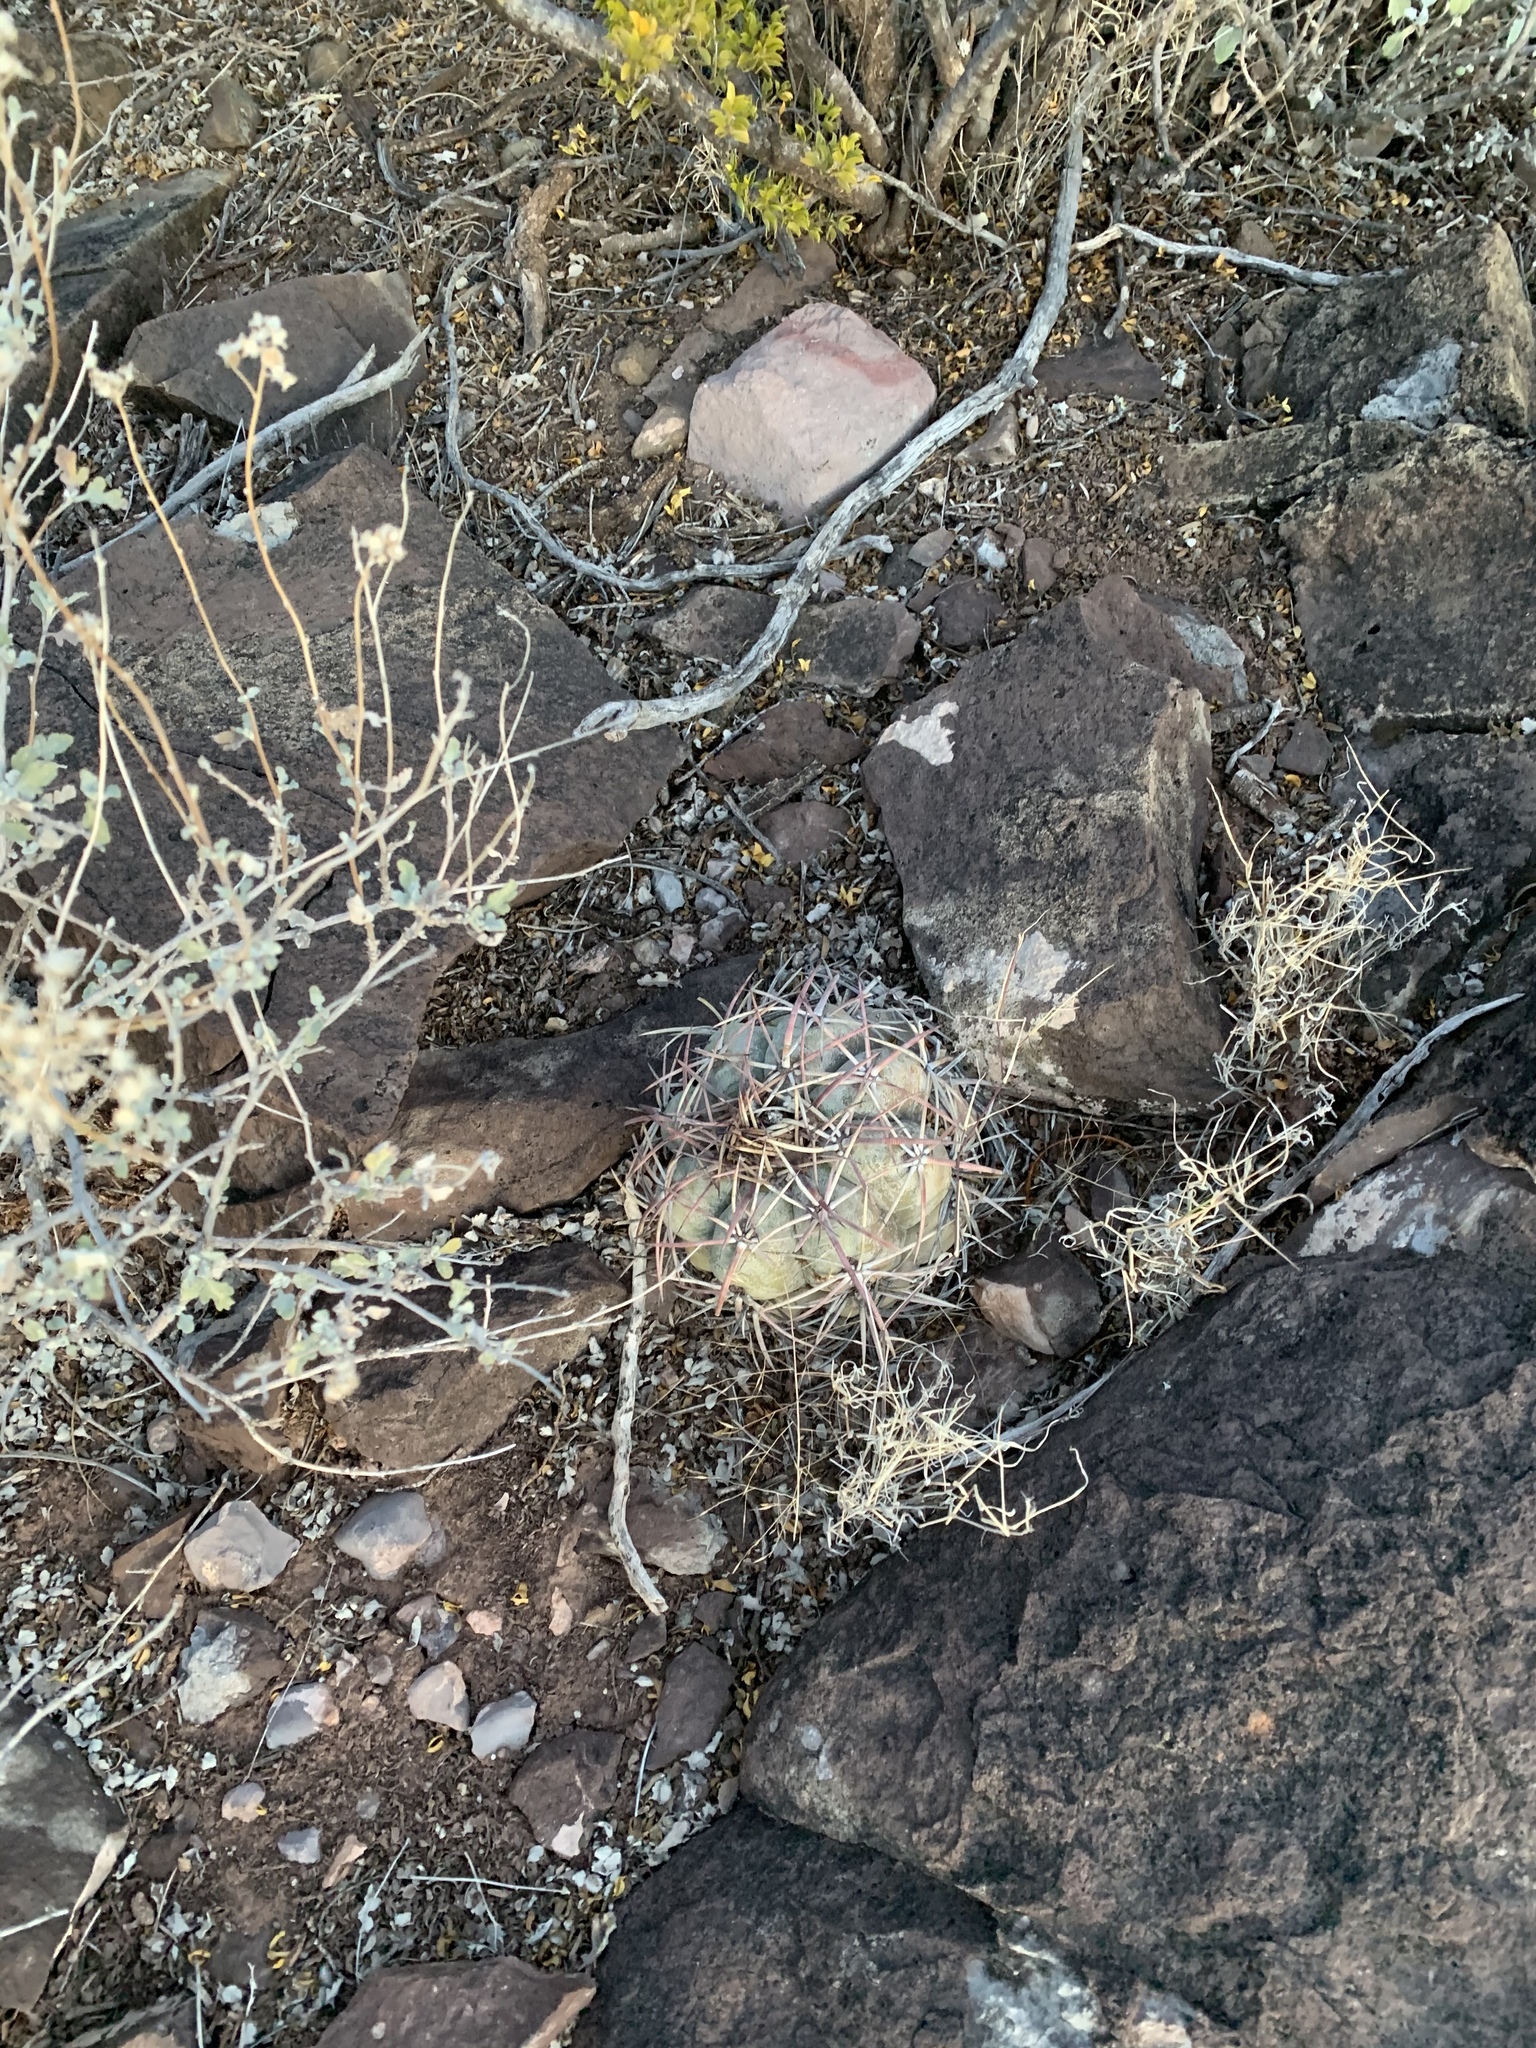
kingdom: Plantae
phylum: Tracheophyta
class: Magnoliopsida
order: Caryophyllales
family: Cactaceae
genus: Echinocactus
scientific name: Echinocactus horizonthalonius
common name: Devilshead
